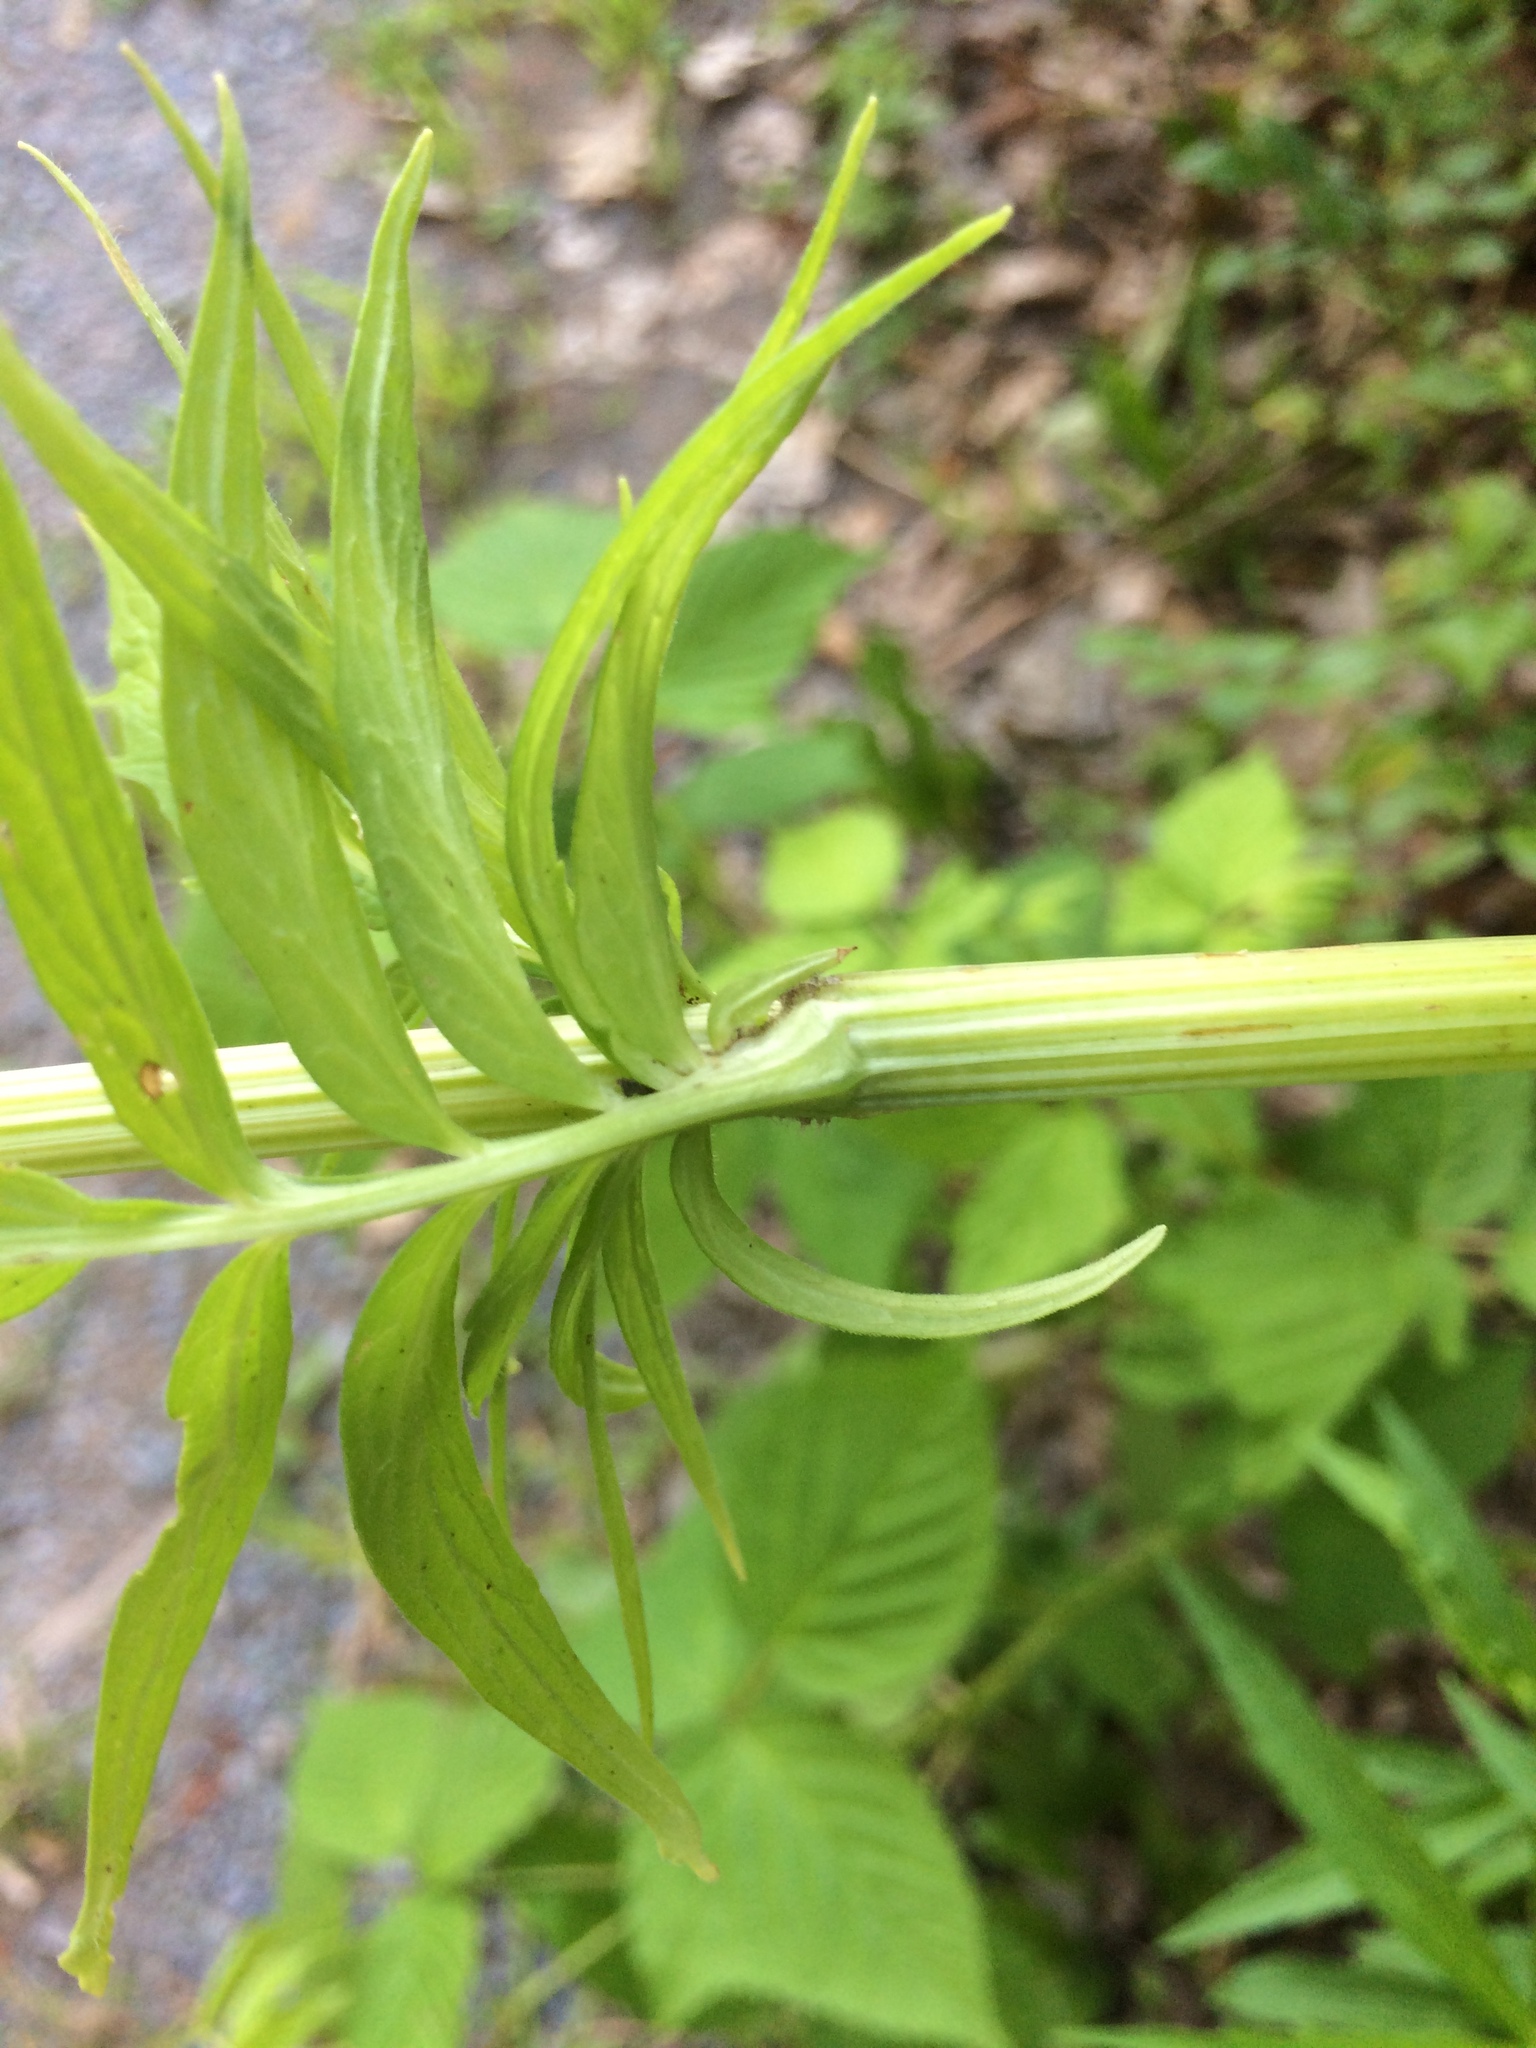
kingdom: Plantae
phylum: Tracheophyta
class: Magnoliopsida
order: Dipsacales
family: Caprifoliaceae
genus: Valeriana
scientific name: Valeriana officinalis
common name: Common valerian
